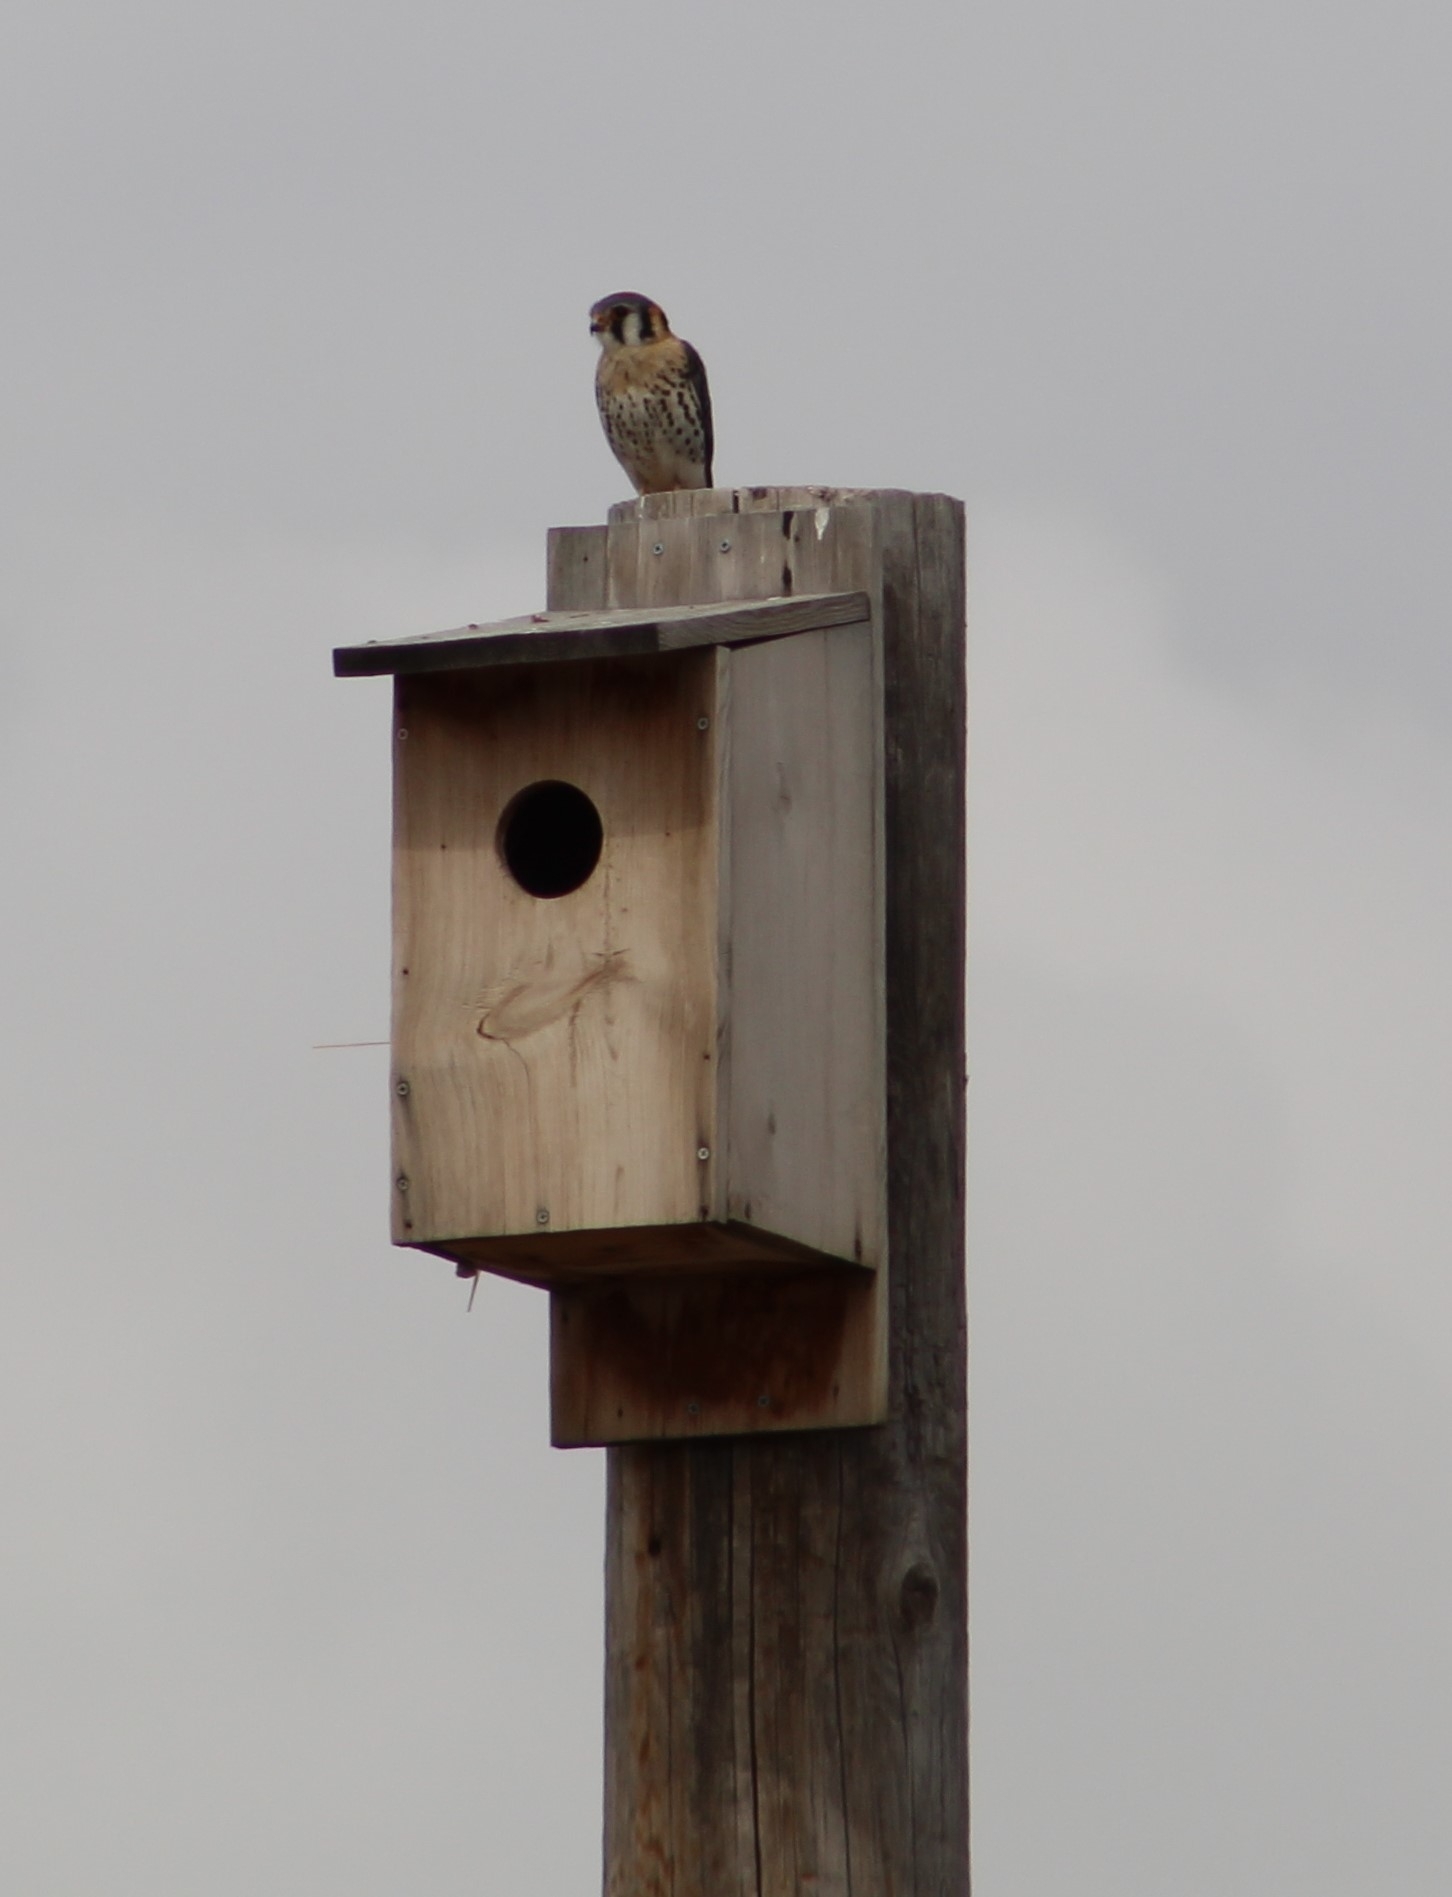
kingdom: Animalia
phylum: Chordata
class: Aves
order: Falconiformes
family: Falconidae
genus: Falco
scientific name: Falco sparverius
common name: American kestrel
